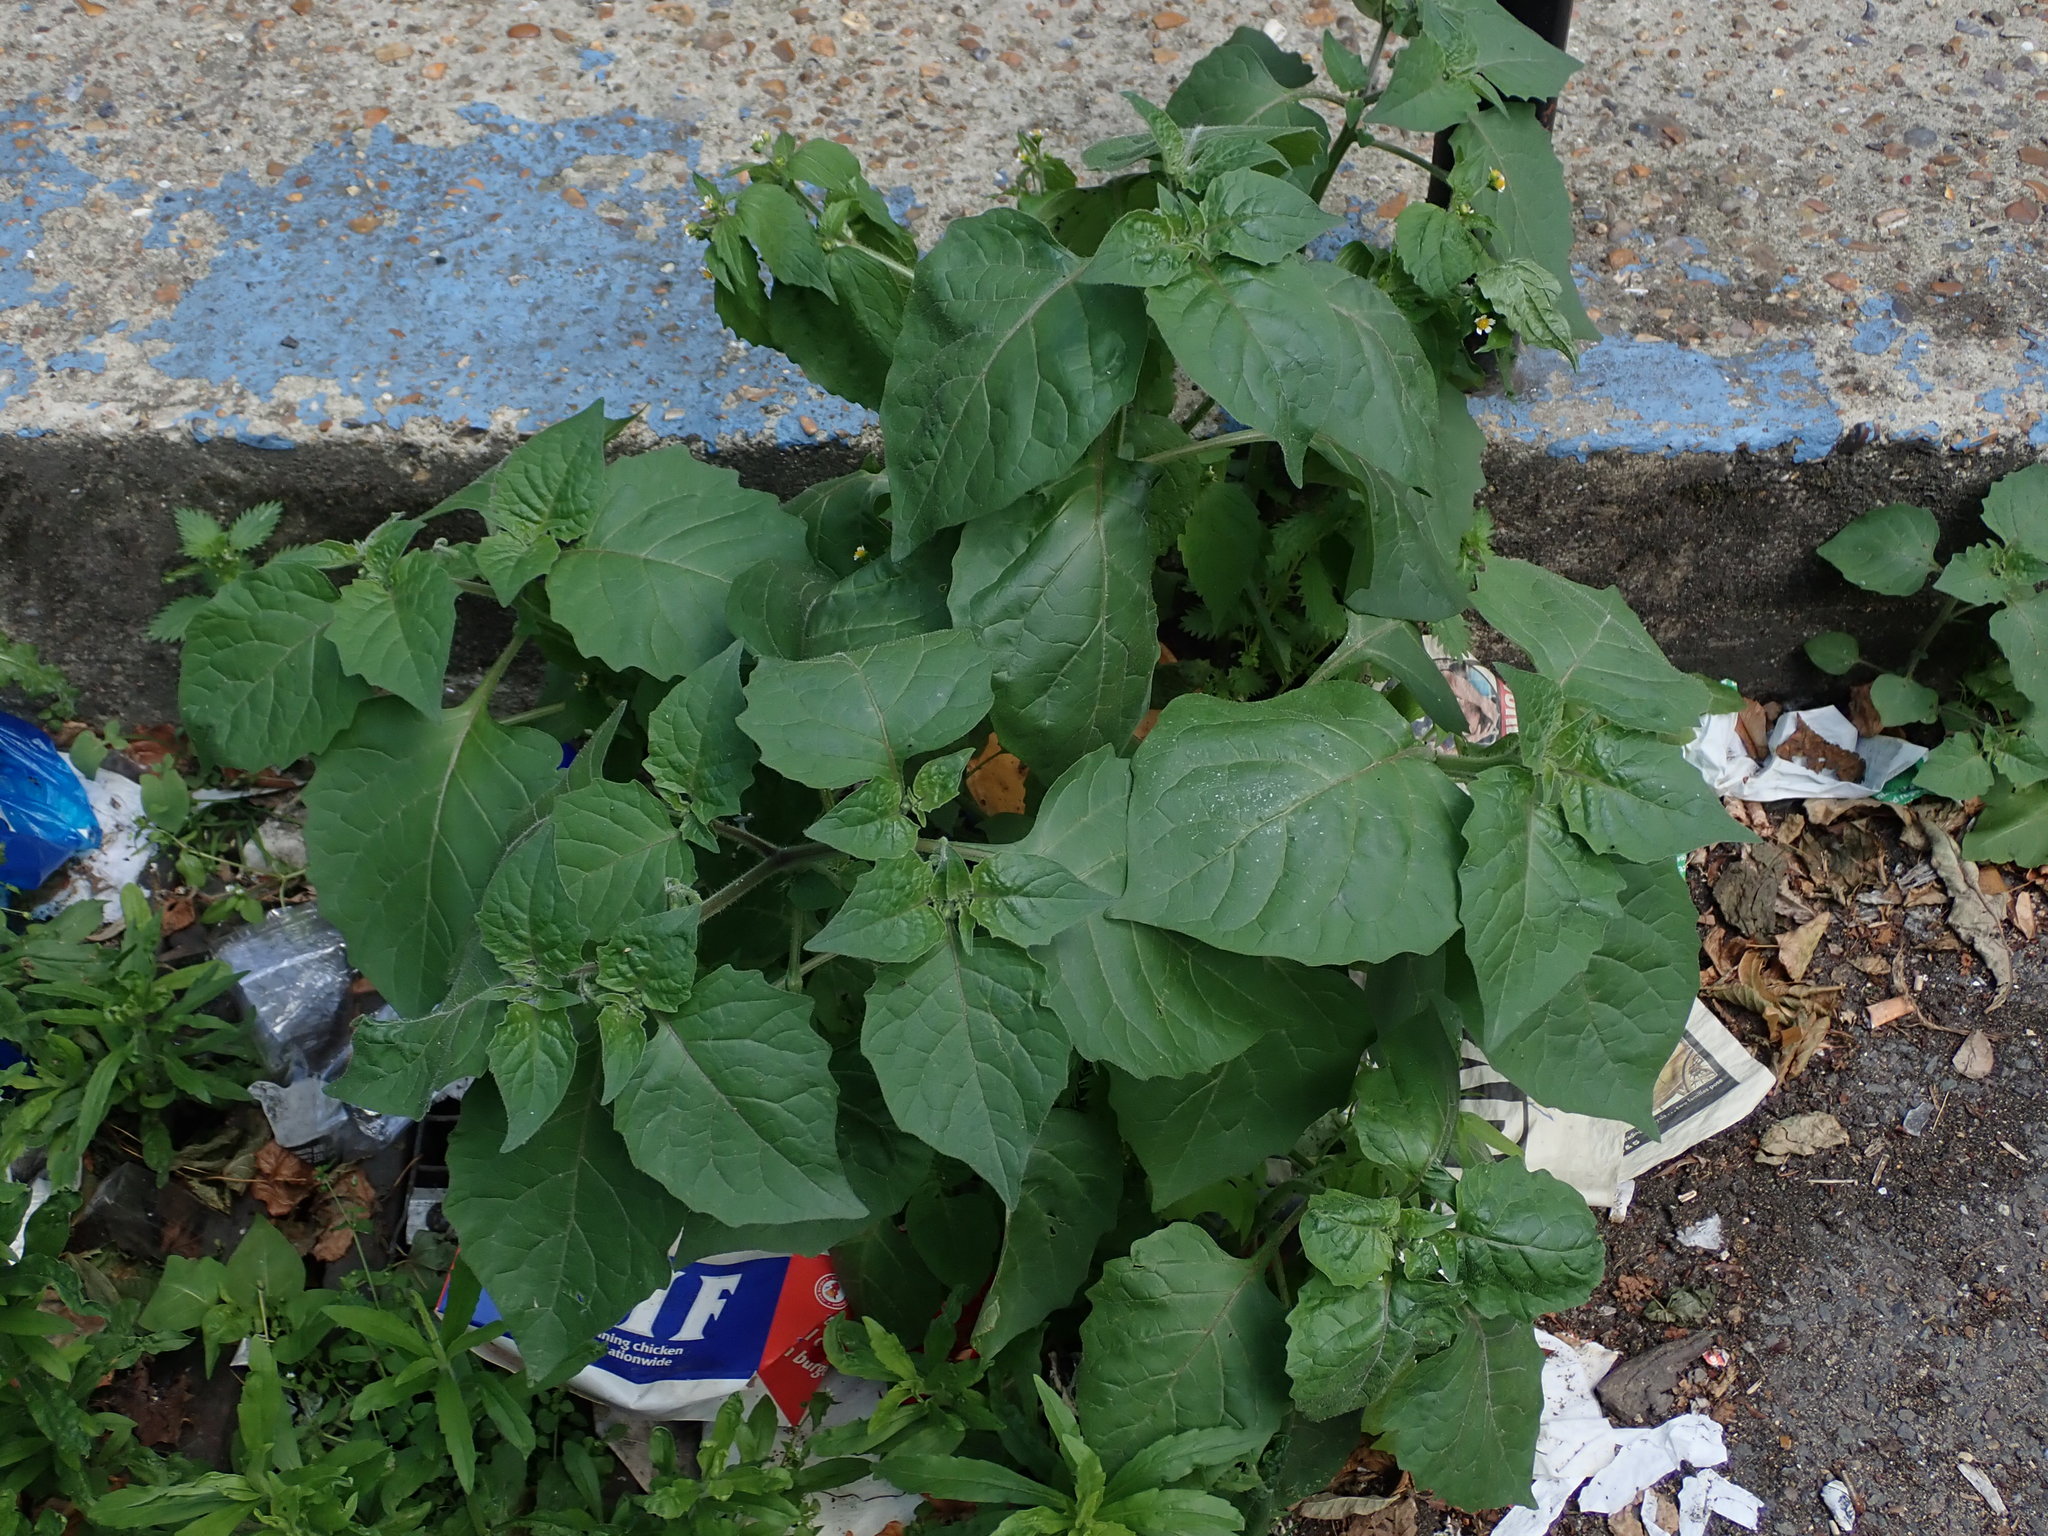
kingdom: Plantae
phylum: Tracheophyta
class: Magnoliopsida
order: Solanales
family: Solanaceae
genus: Solanum
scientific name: Solanum nigrum
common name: Black nightshade
